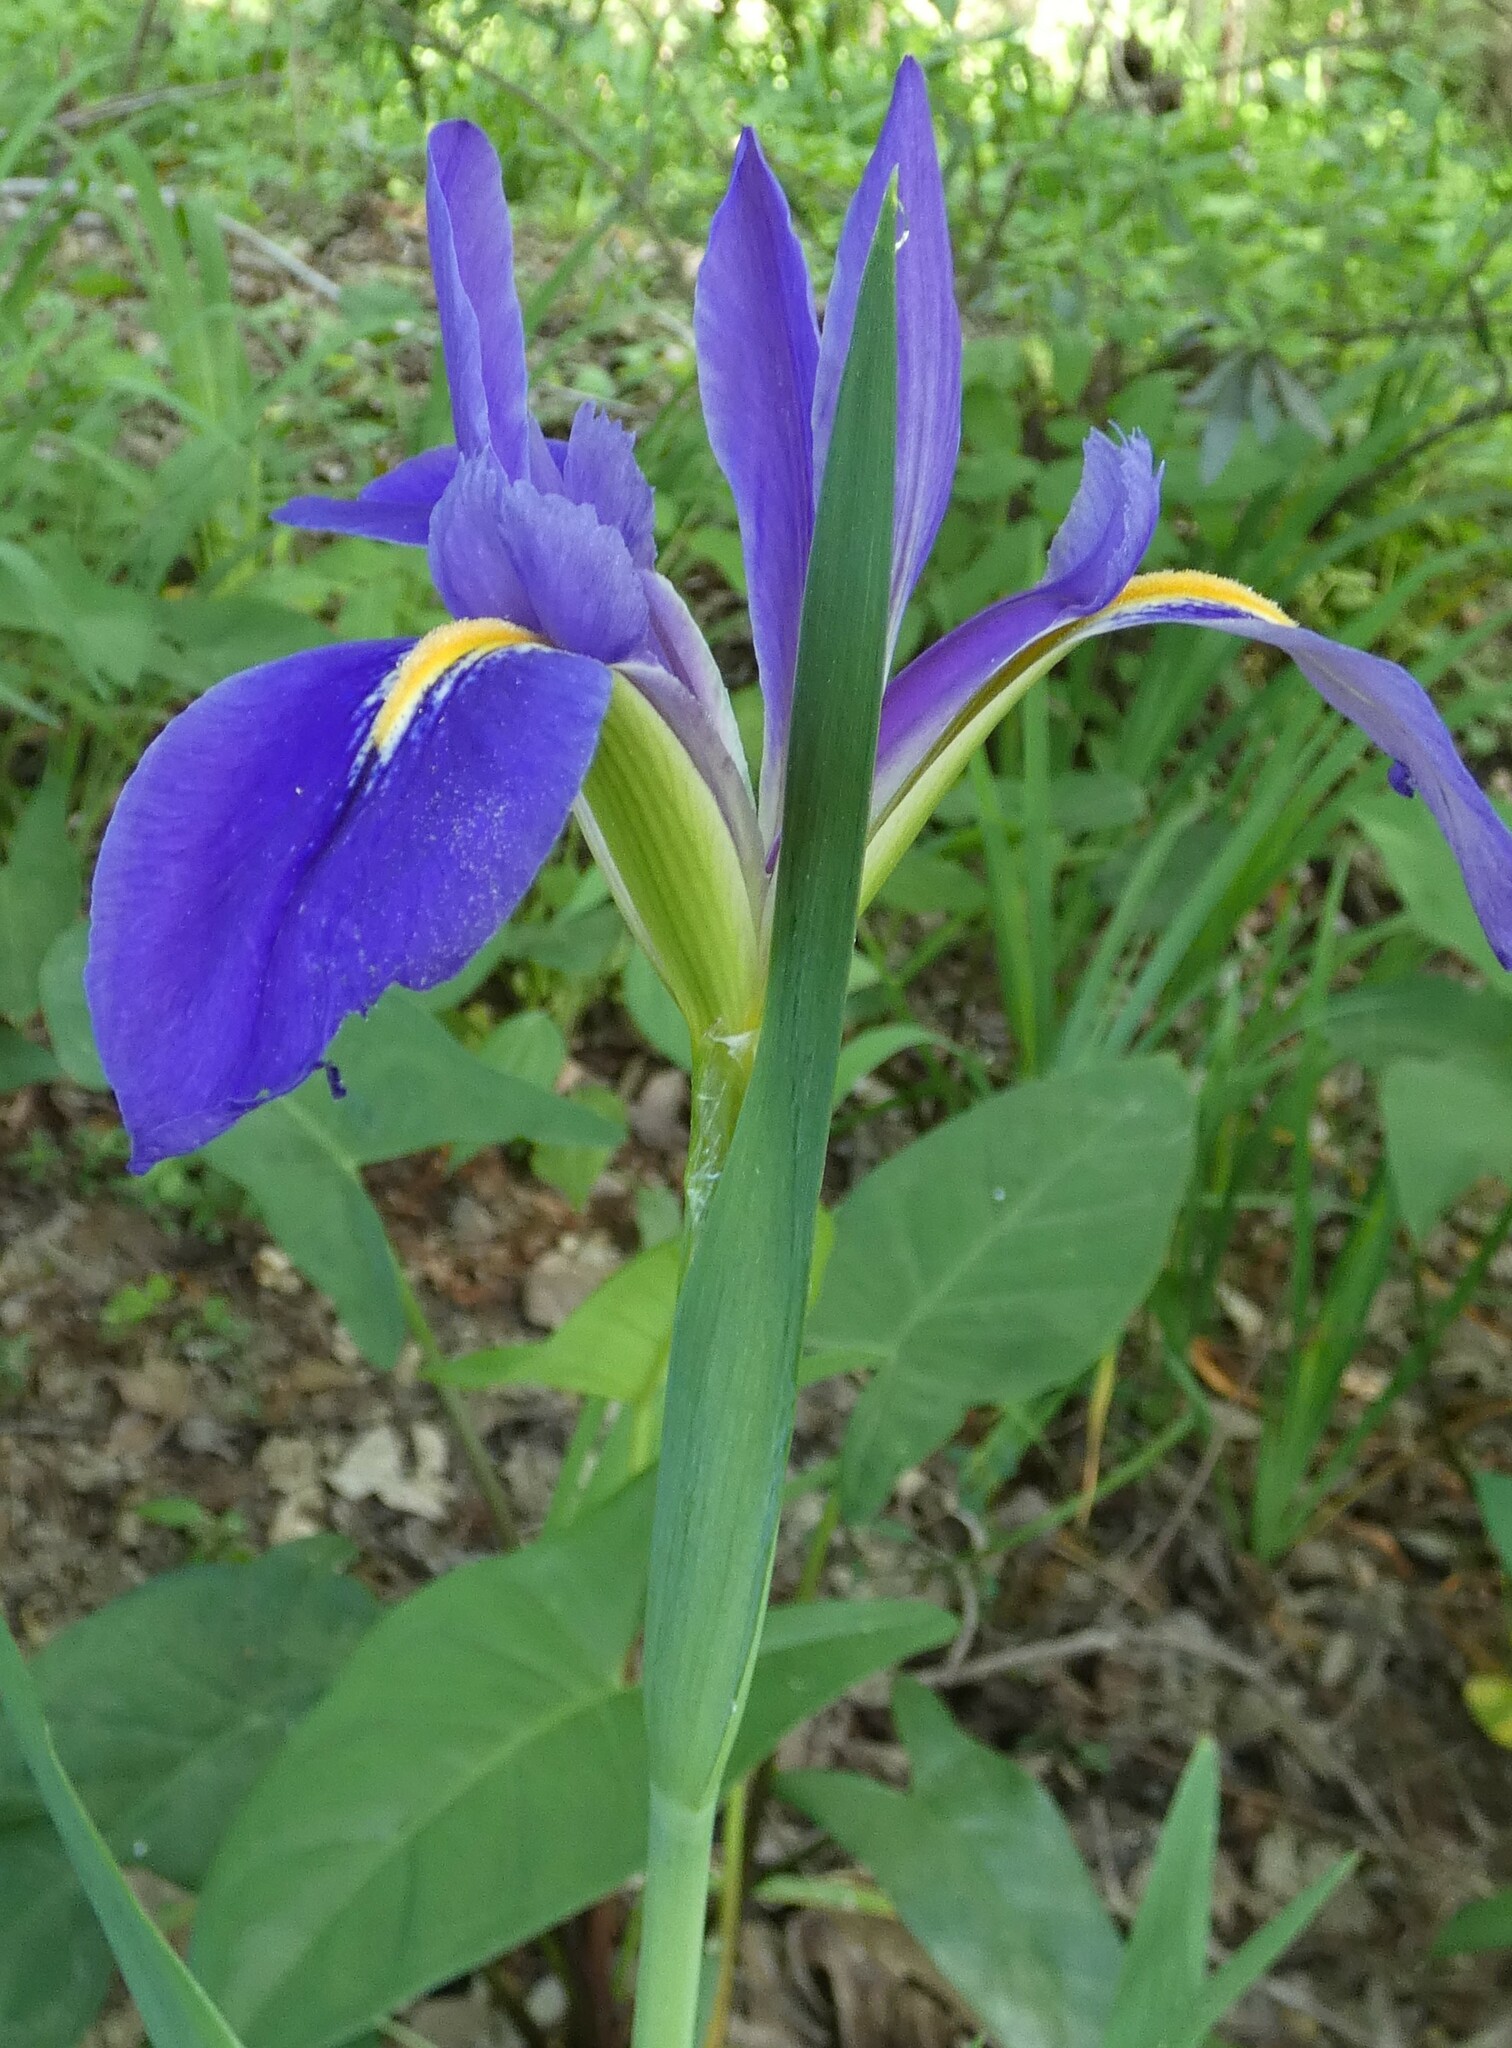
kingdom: Plantae
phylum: Tracheophyta
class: Liliopsida
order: Asparagales
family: Iridaceae
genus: Iris
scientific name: Iris savannarum
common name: Prairie iris
